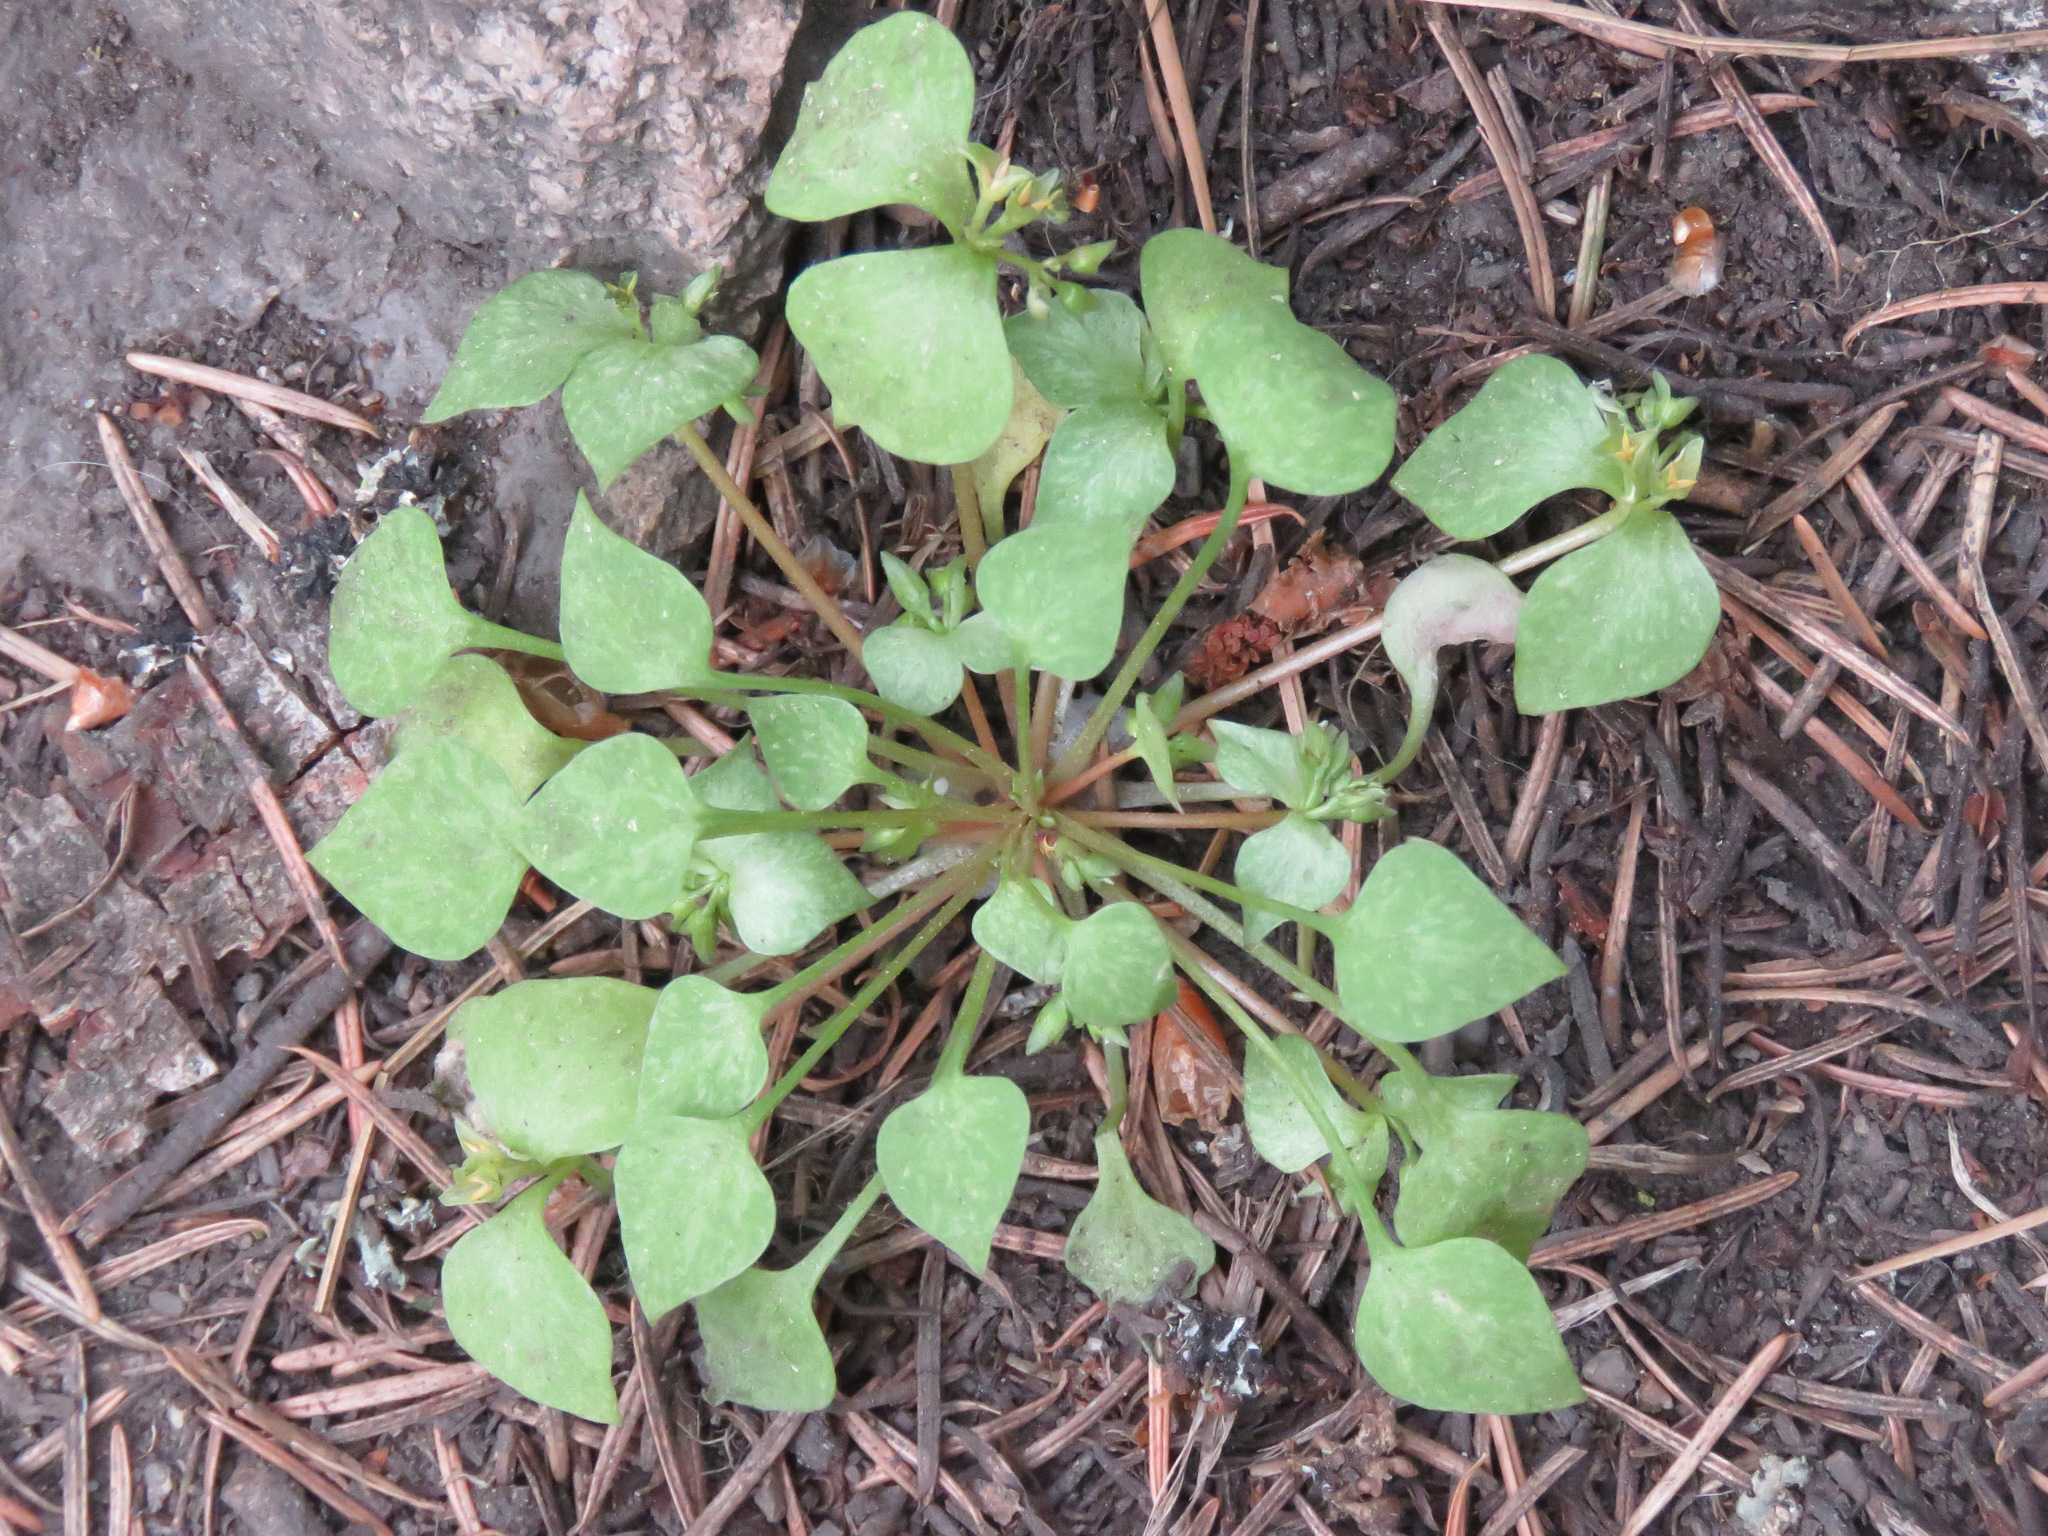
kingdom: Plantae
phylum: Tracheophyta
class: Magnoliopsida
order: Caryophyllales
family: Montiaceae
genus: Claytonia
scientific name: Claytonia rubra
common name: Erubescent miner's-lettuce
